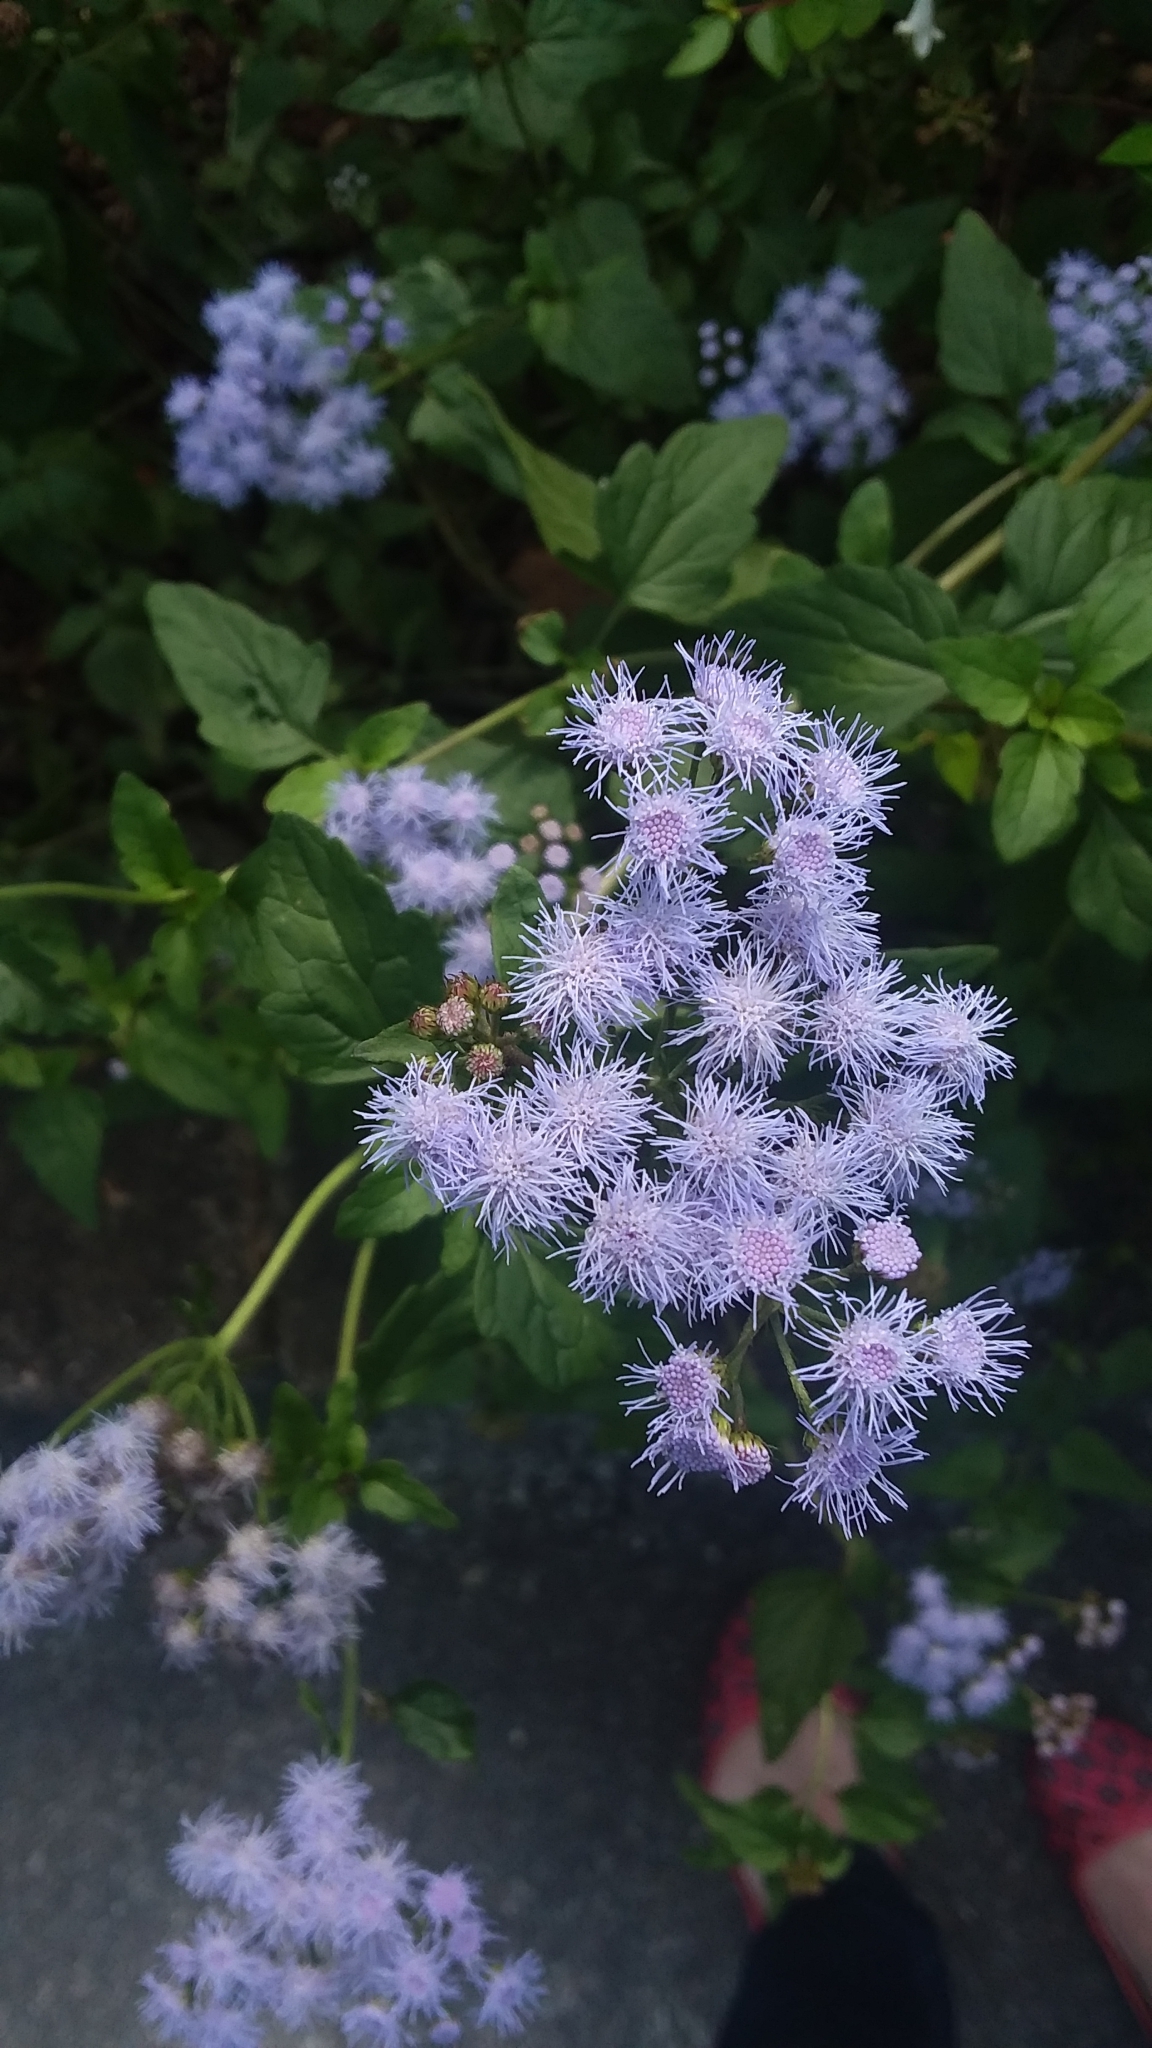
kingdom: Plantae
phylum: Tracheophyta
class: Magnoliopsida
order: Asterales
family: Asteraceae
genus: Conoclinium
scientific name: Conoclinium coelestinum
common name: Blue mistflower
